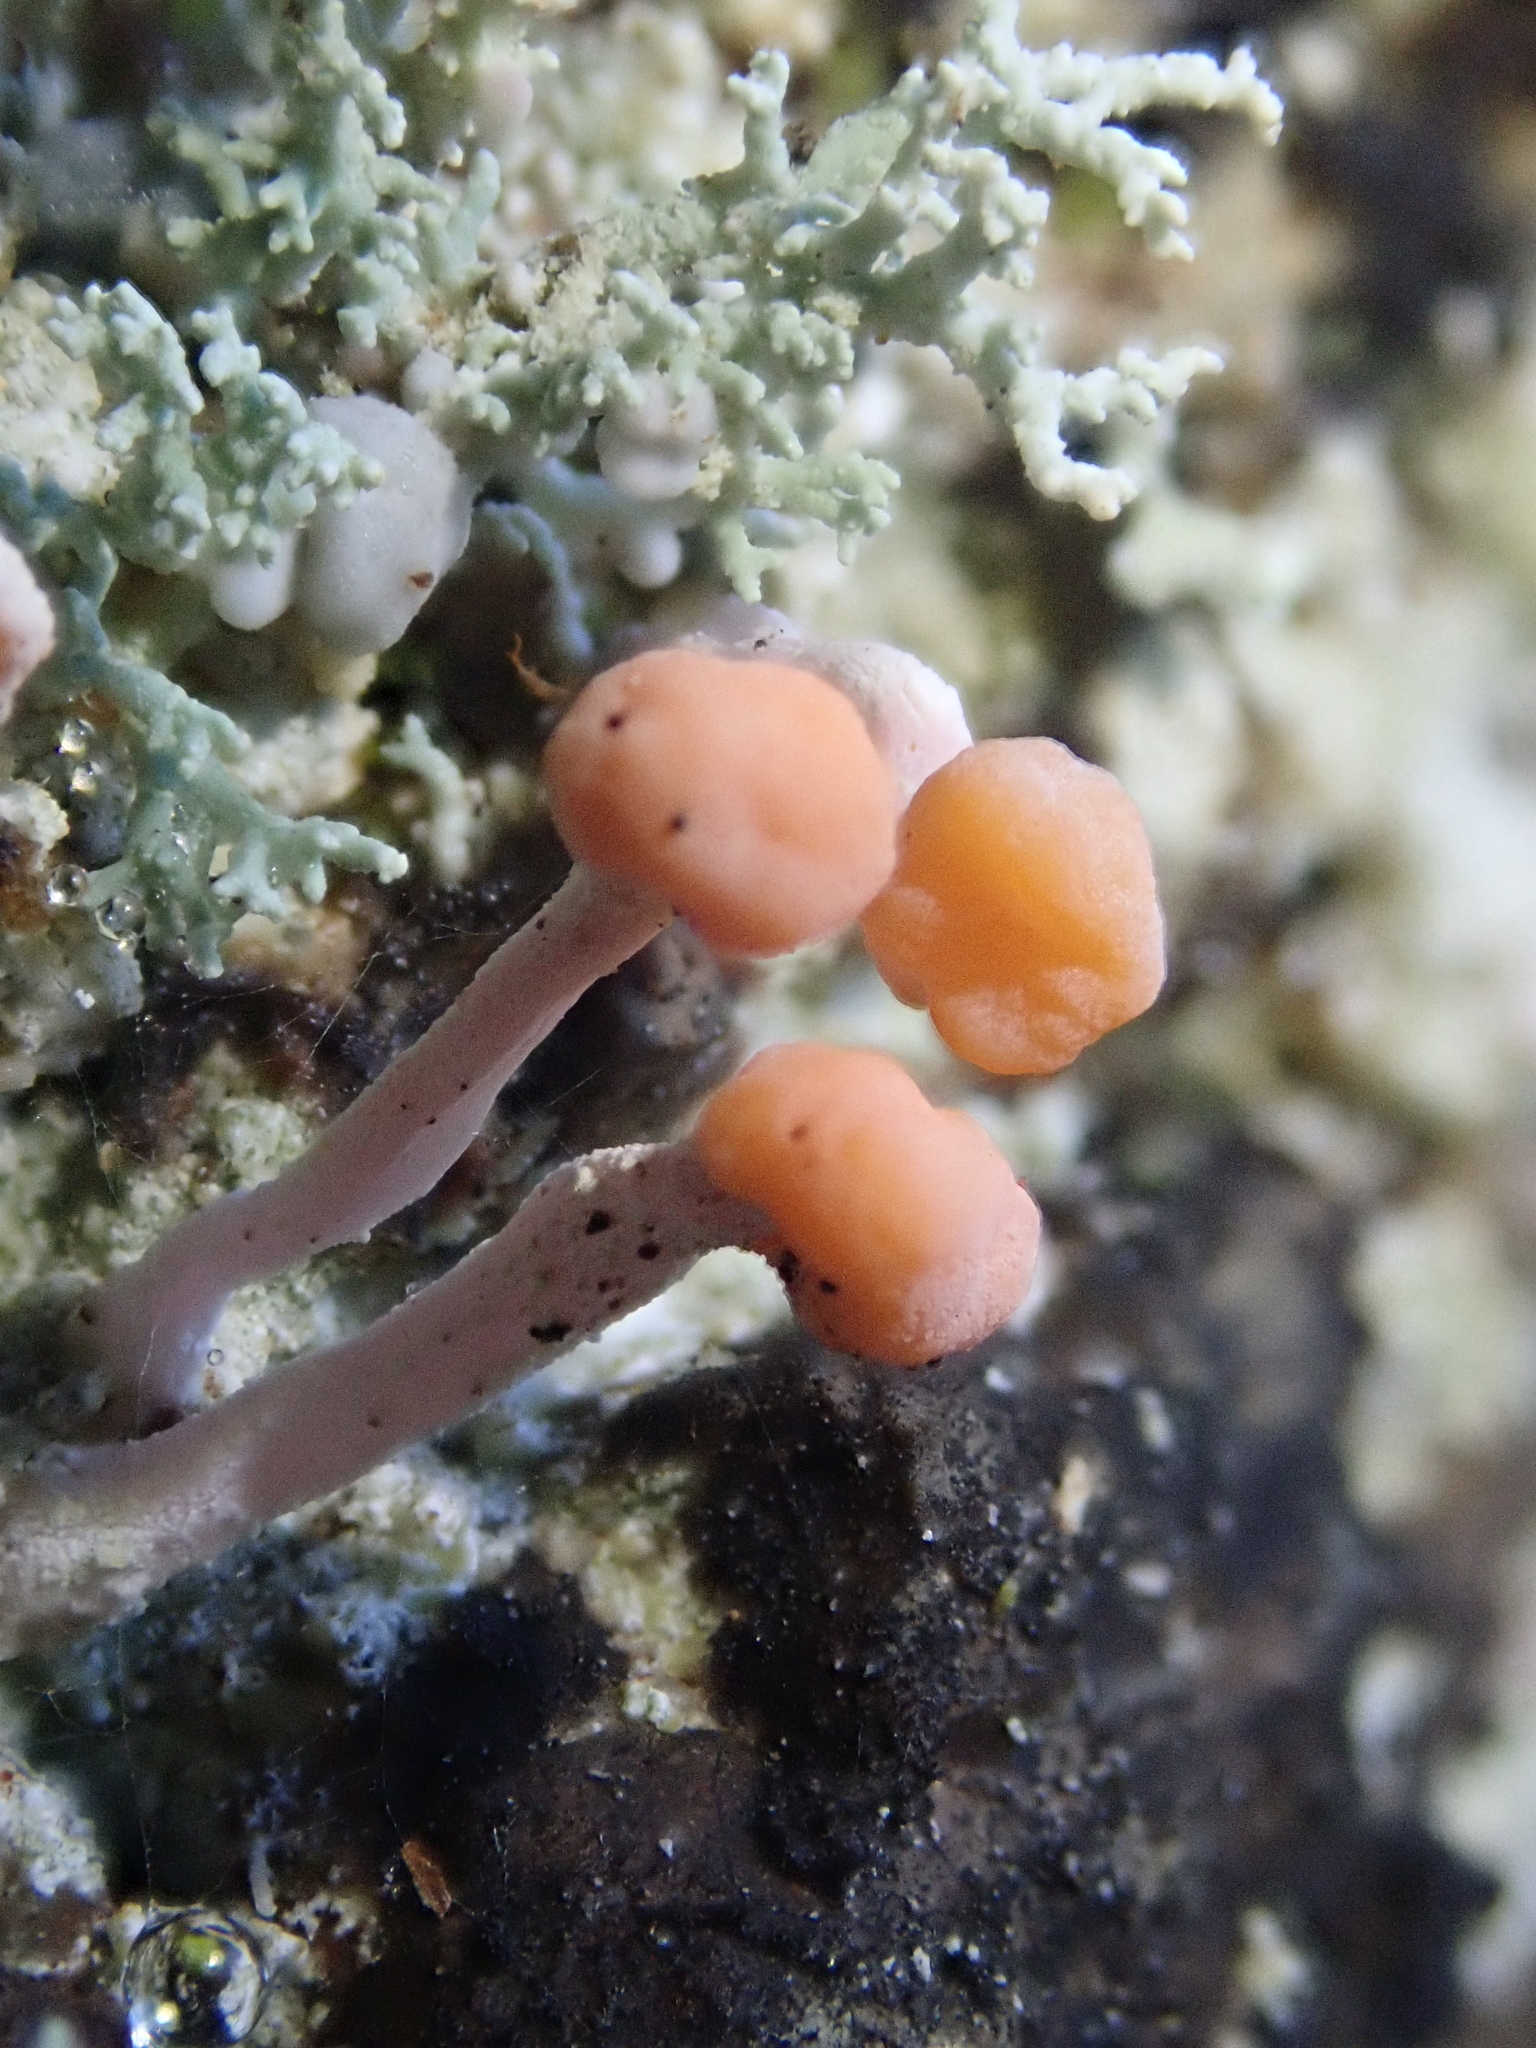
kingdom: Fungi
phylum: Ascomycota
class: Lecanoromycetes
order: Pertusariales
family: Icmadophilaceae
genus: Dibaeis
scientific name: Dibaeis arcuata
